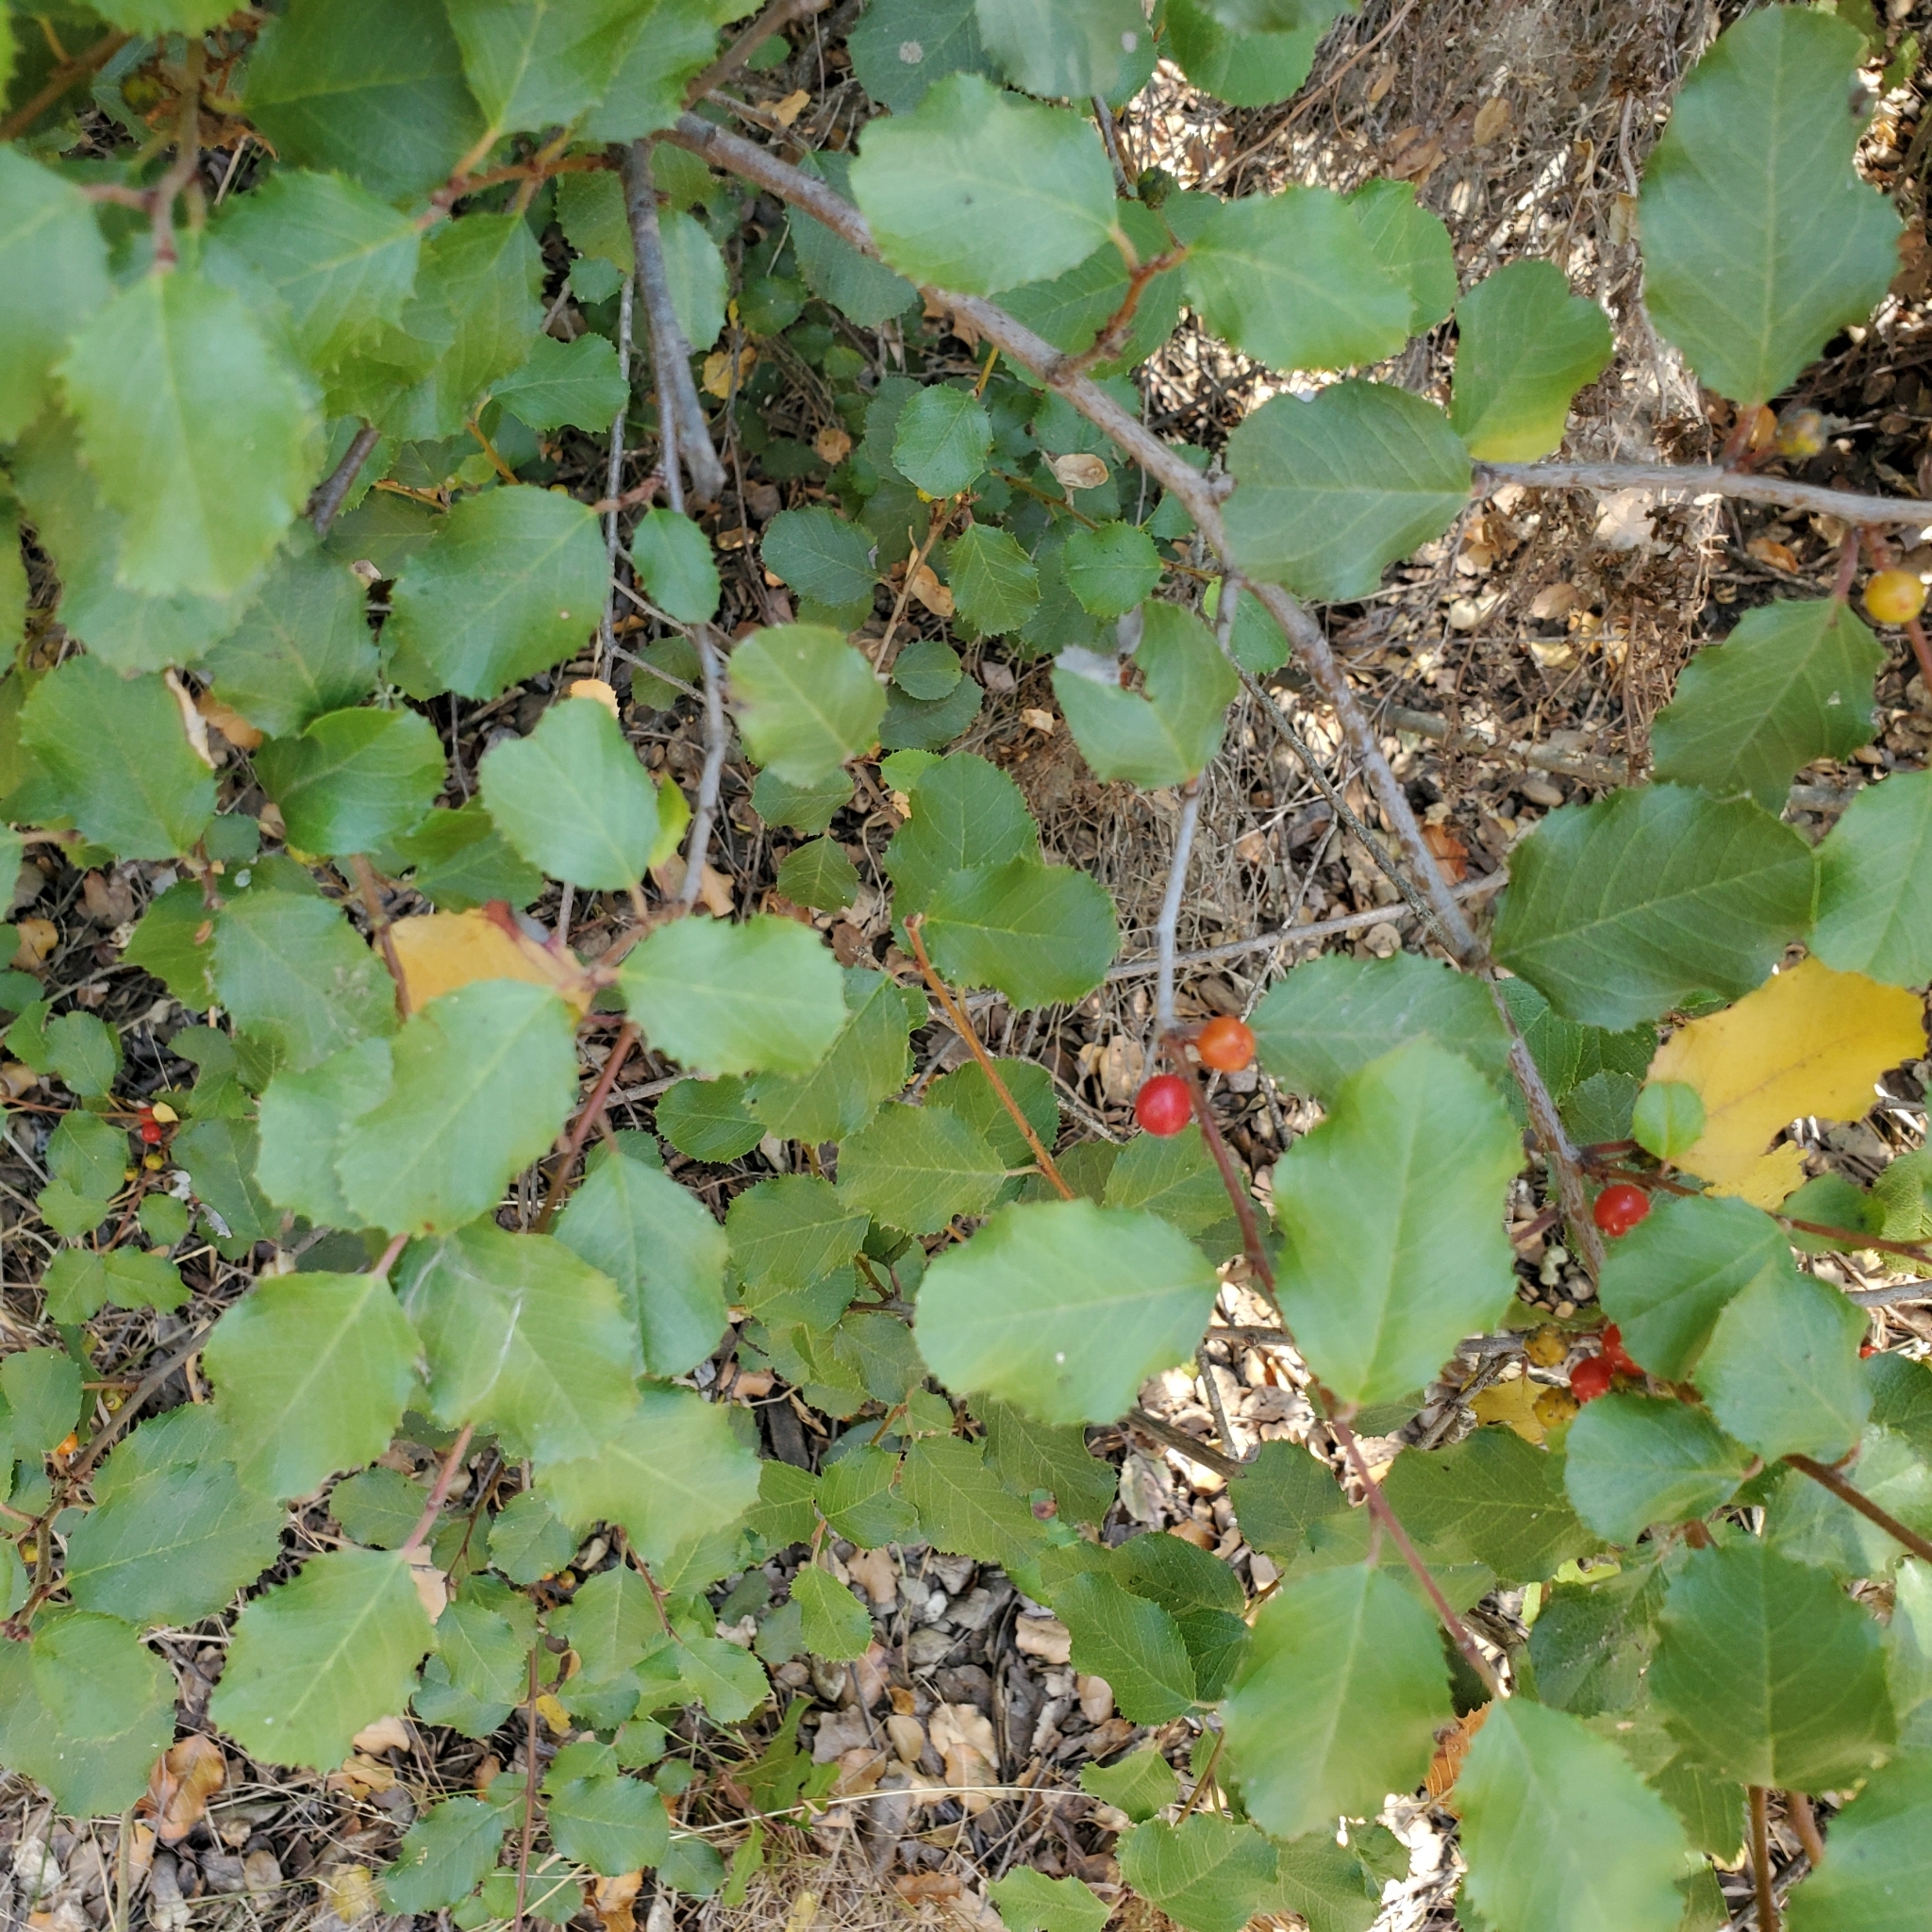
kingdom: Plantae
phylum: Tracheophyta
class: Magnoliopsida
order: Rosales
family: Rhamnaceae
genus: Endotropis
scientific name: Endotropis crocea
